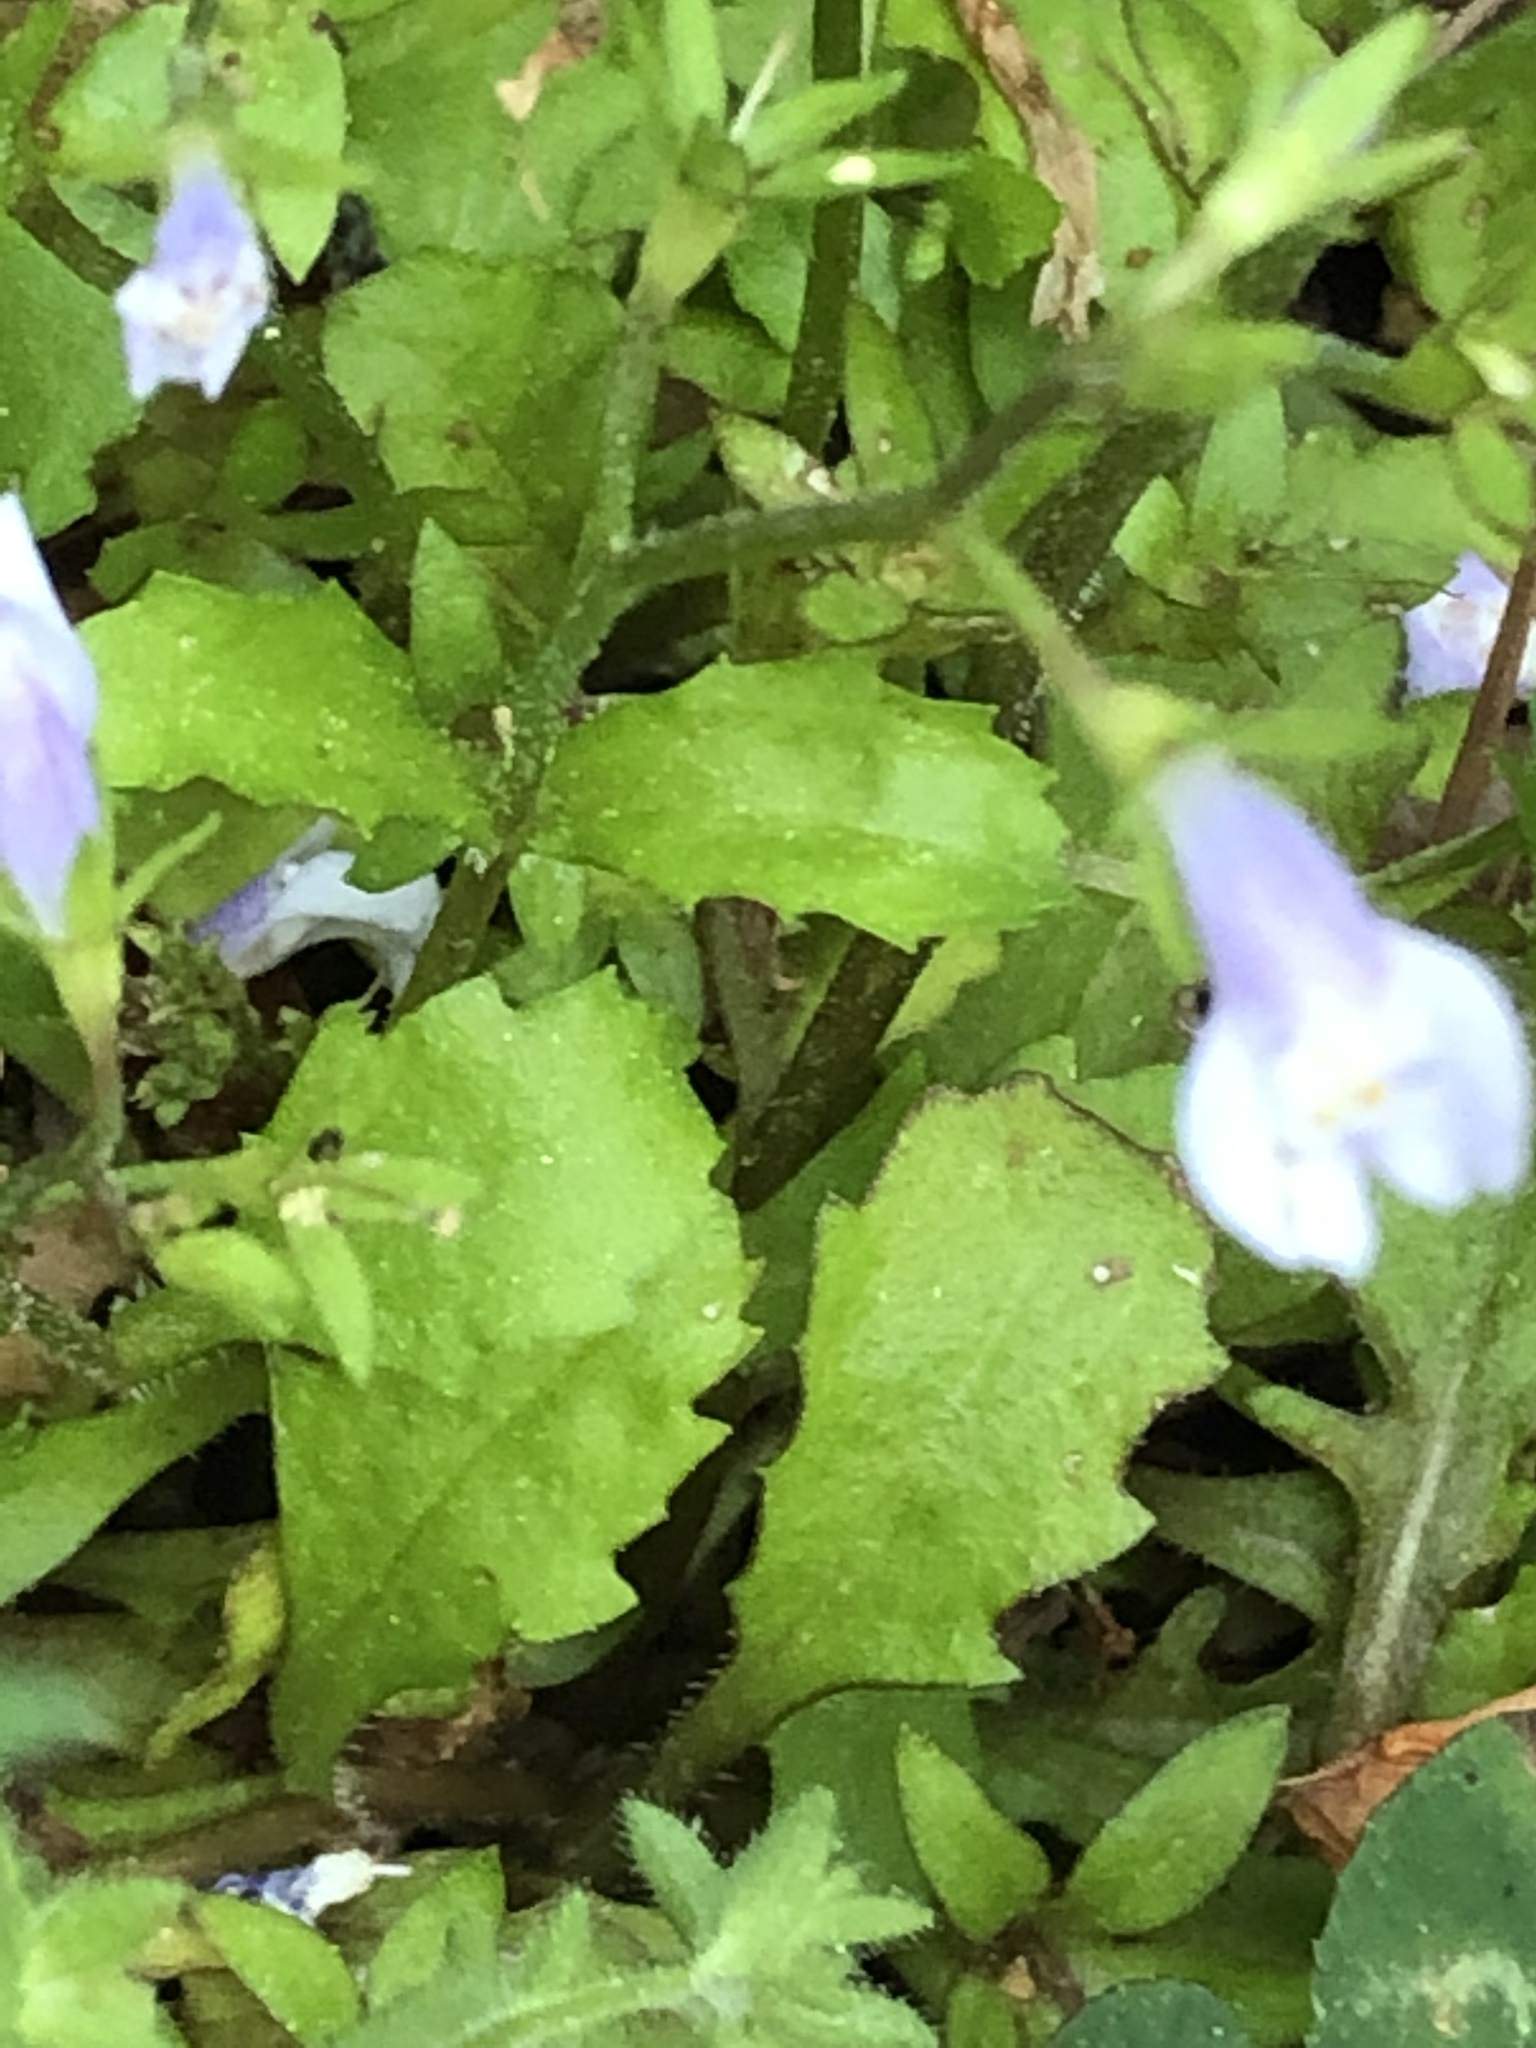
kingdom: Plantae
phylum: Tracheophyta
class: Magnoliopsida
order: Lamiales
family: Mazaceae
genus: Mazus
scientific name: Mazus pumilus
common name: Japanese mazus
